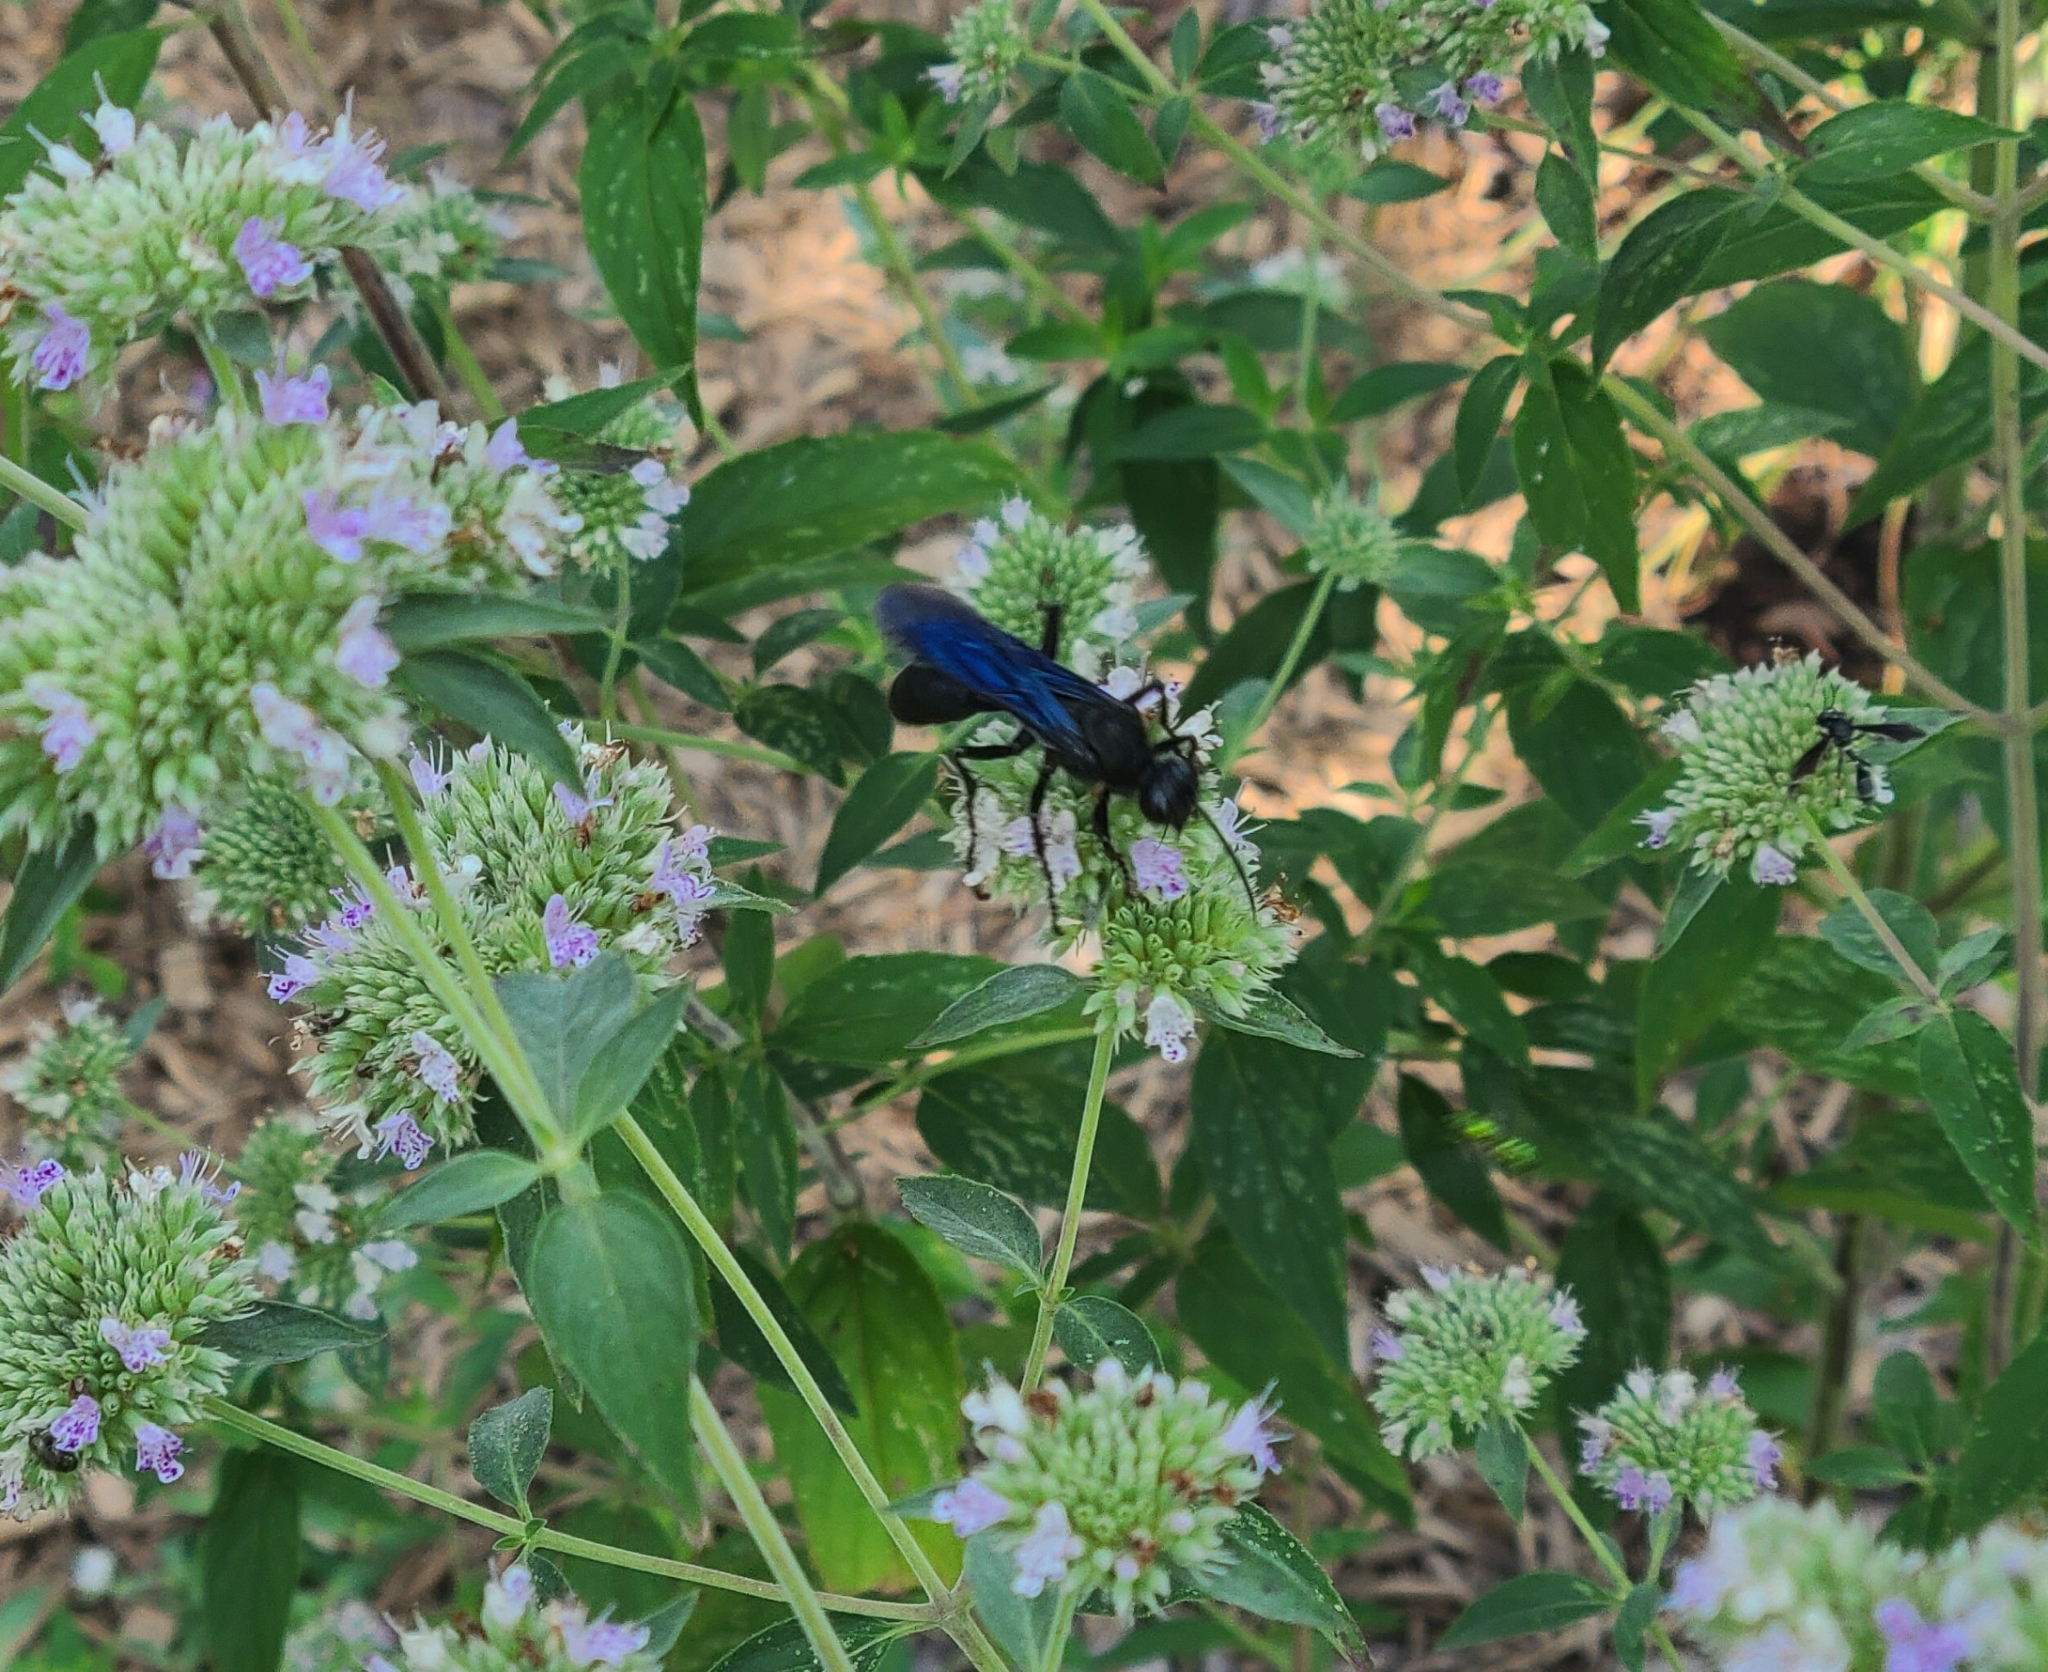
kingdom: Animalia
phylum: Arthropoda
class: Insecta
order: Hymenoptera
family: Sphecidae
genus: Sphex
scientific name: Sphex pensylvanicus
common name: Great black digger wasp
